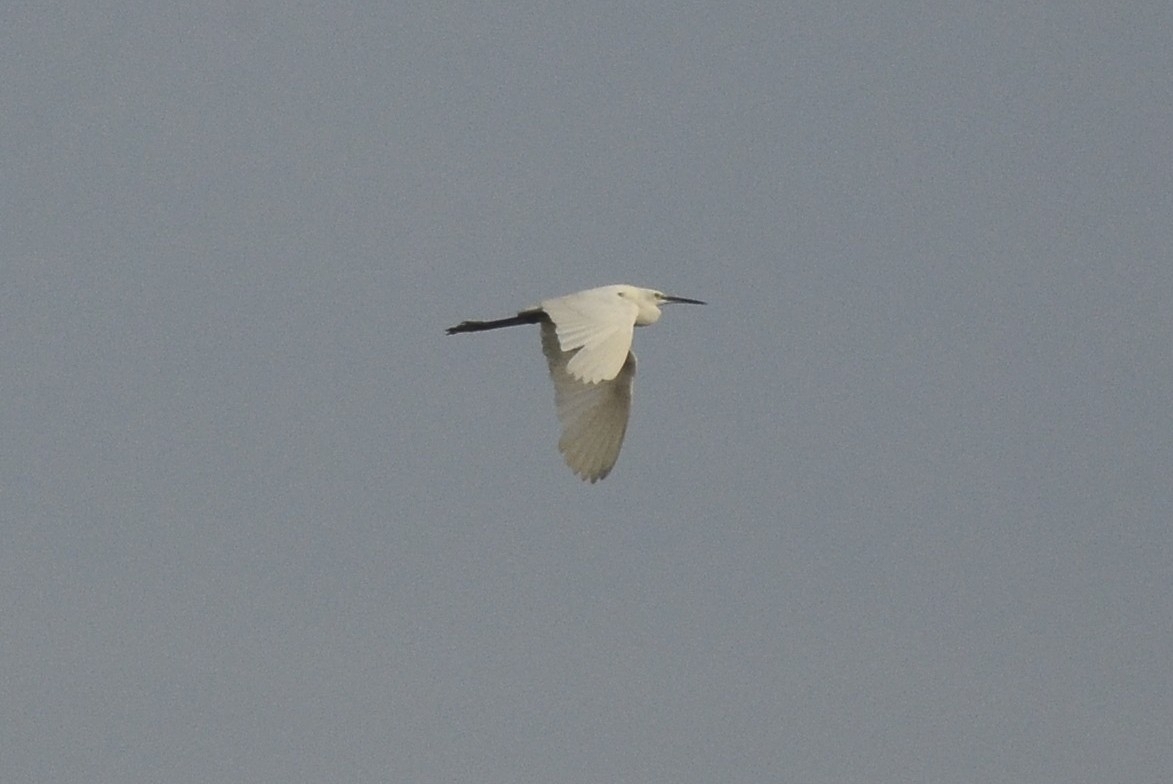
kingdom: Animalia
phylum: Chordata
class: Aves
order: Pelecaniformes
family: Ardeidae
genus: Egretta
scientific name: Egretta garzetta
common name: Little egret
